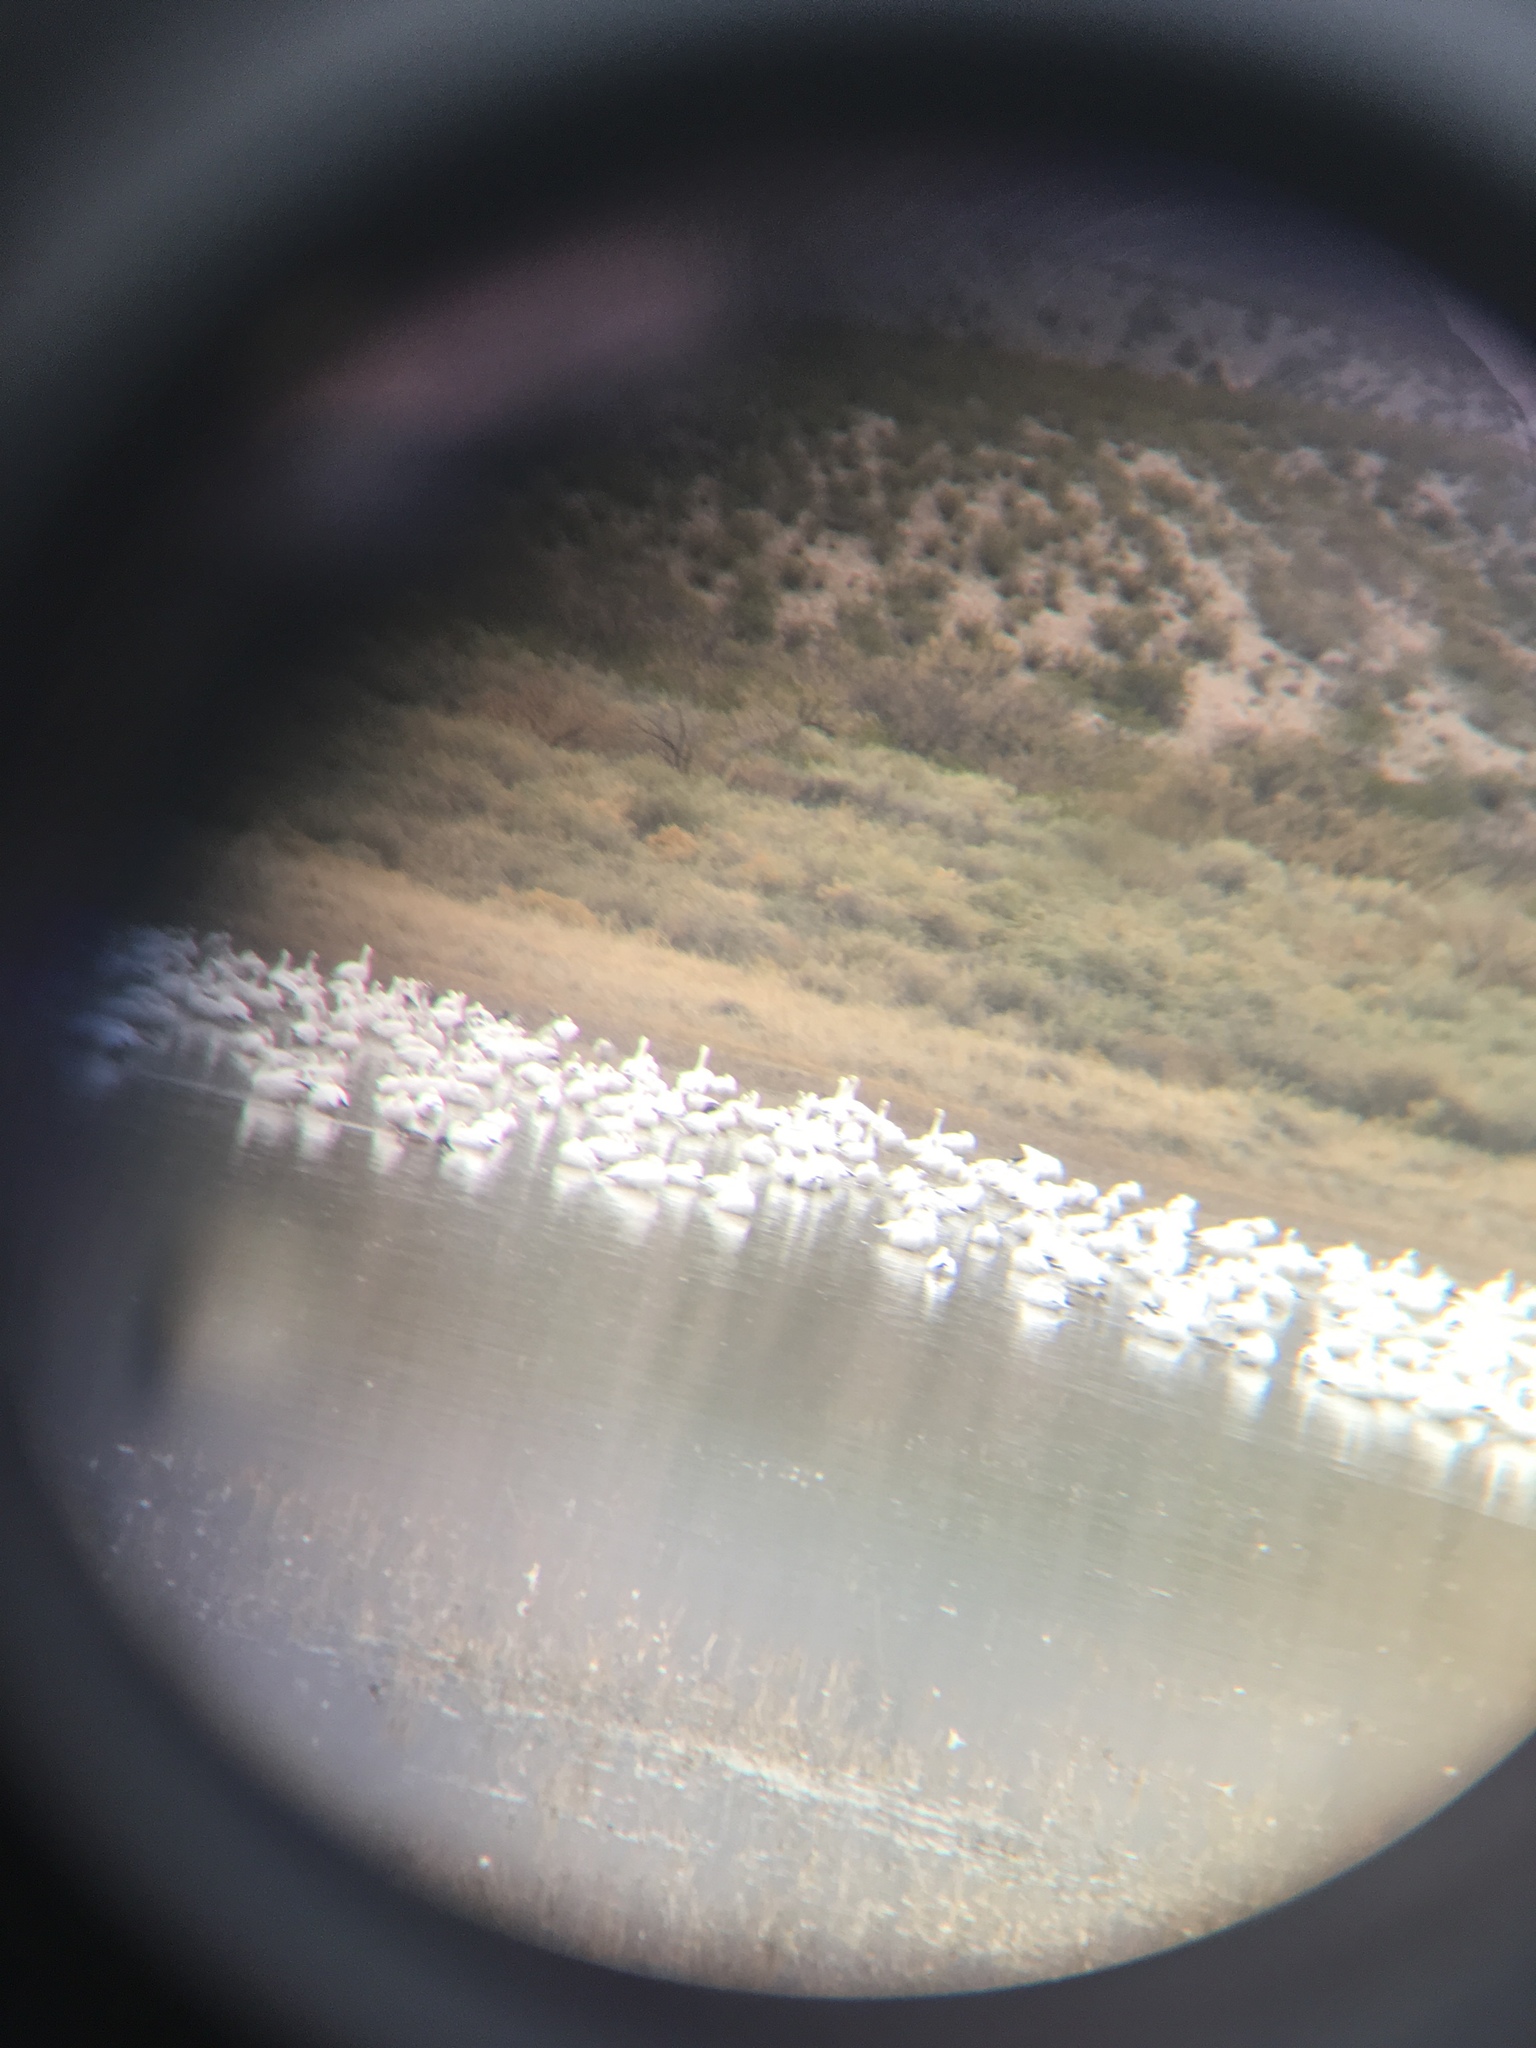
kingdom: Animalia
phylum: Chordata
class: Aves
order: Anseriformes
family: Anatidae
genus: Anser
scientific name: Anser caerulescens
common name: Snow goose
